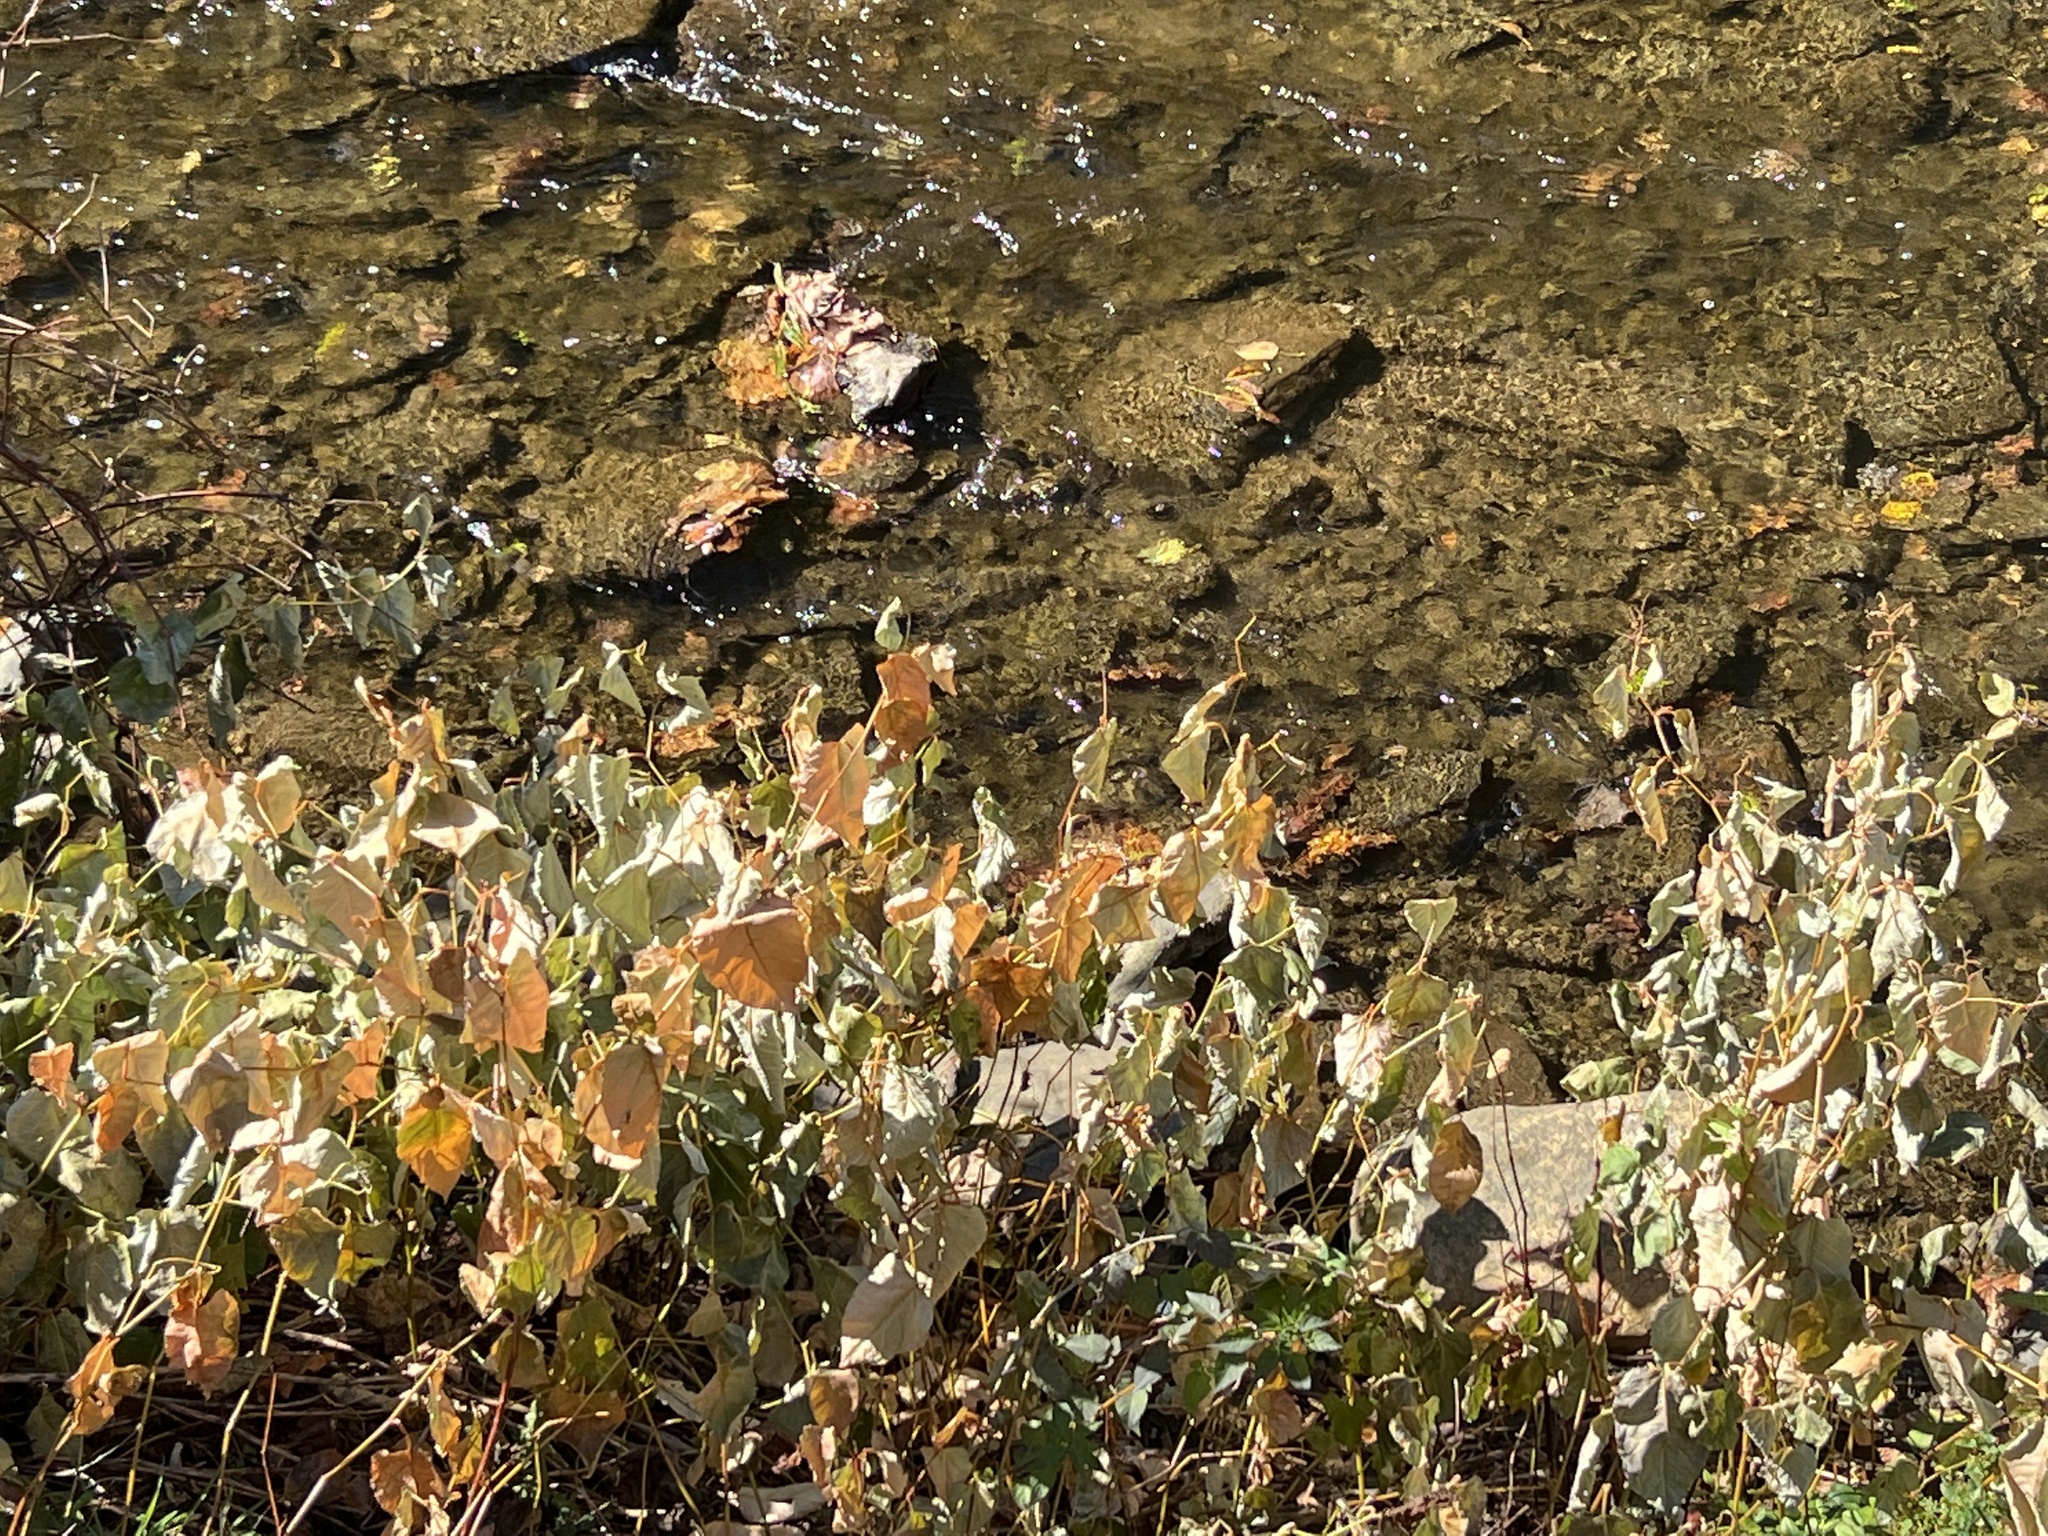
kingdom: Plantae
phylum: Tracheophyta
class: Magnoliopsida
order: Caryophyllales
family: Polygonaceae
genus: Reynoutria
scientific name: Reynoutria japonica
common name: Japanese knotweed
